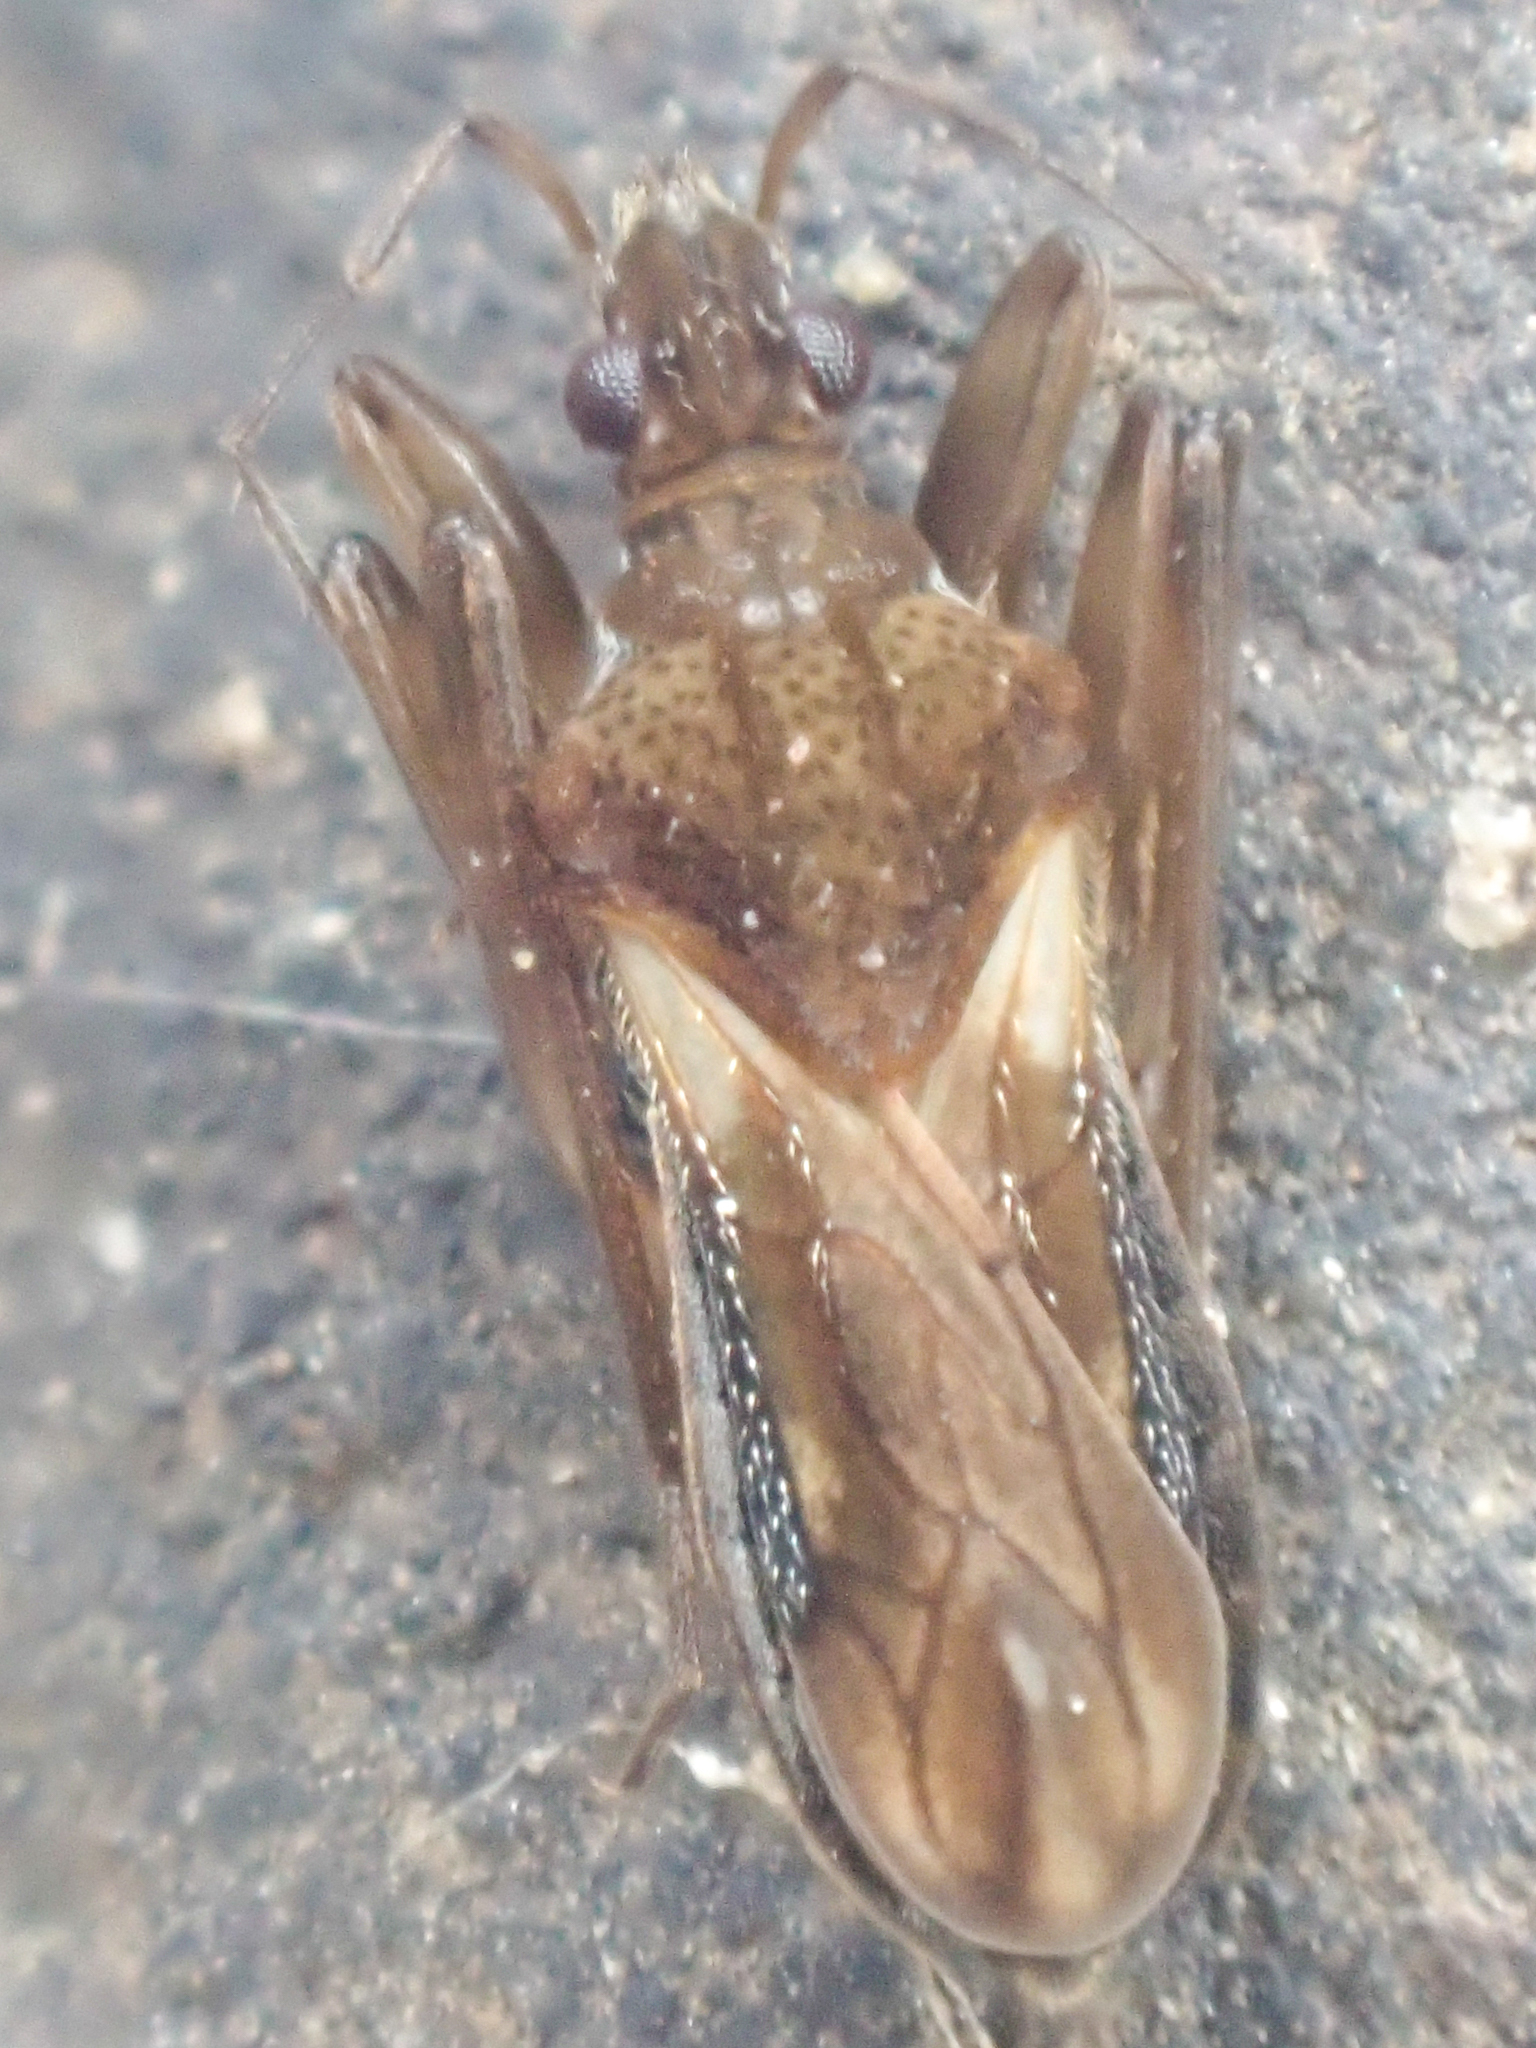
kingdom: Animalia
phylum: Arthropoda
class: Insecta
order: Hemiptera
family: Macroveliidae
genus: Macrovelia
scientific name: Macrovelia hornii
